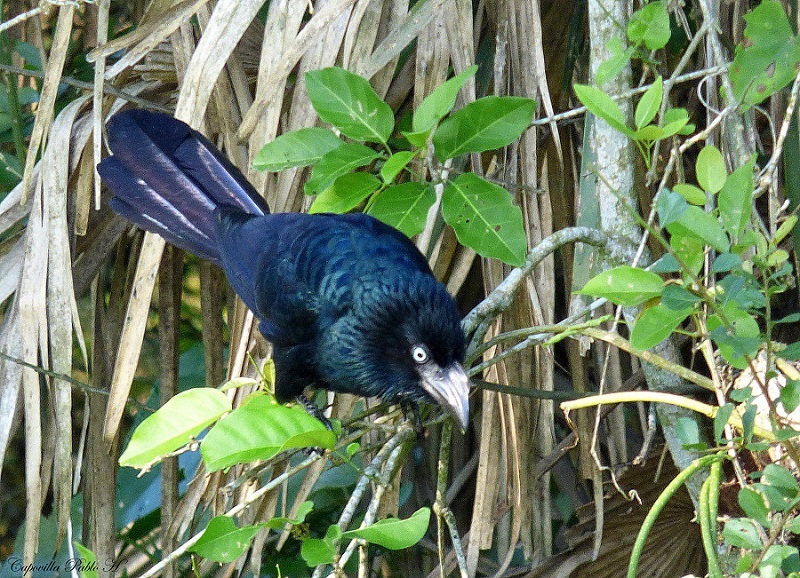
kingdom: Animalia
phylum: Chordata
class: Aves
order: Cuculiformes
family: Cuculidae
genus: Crotophaga
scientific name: Crotophaga major
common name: Greater ani
